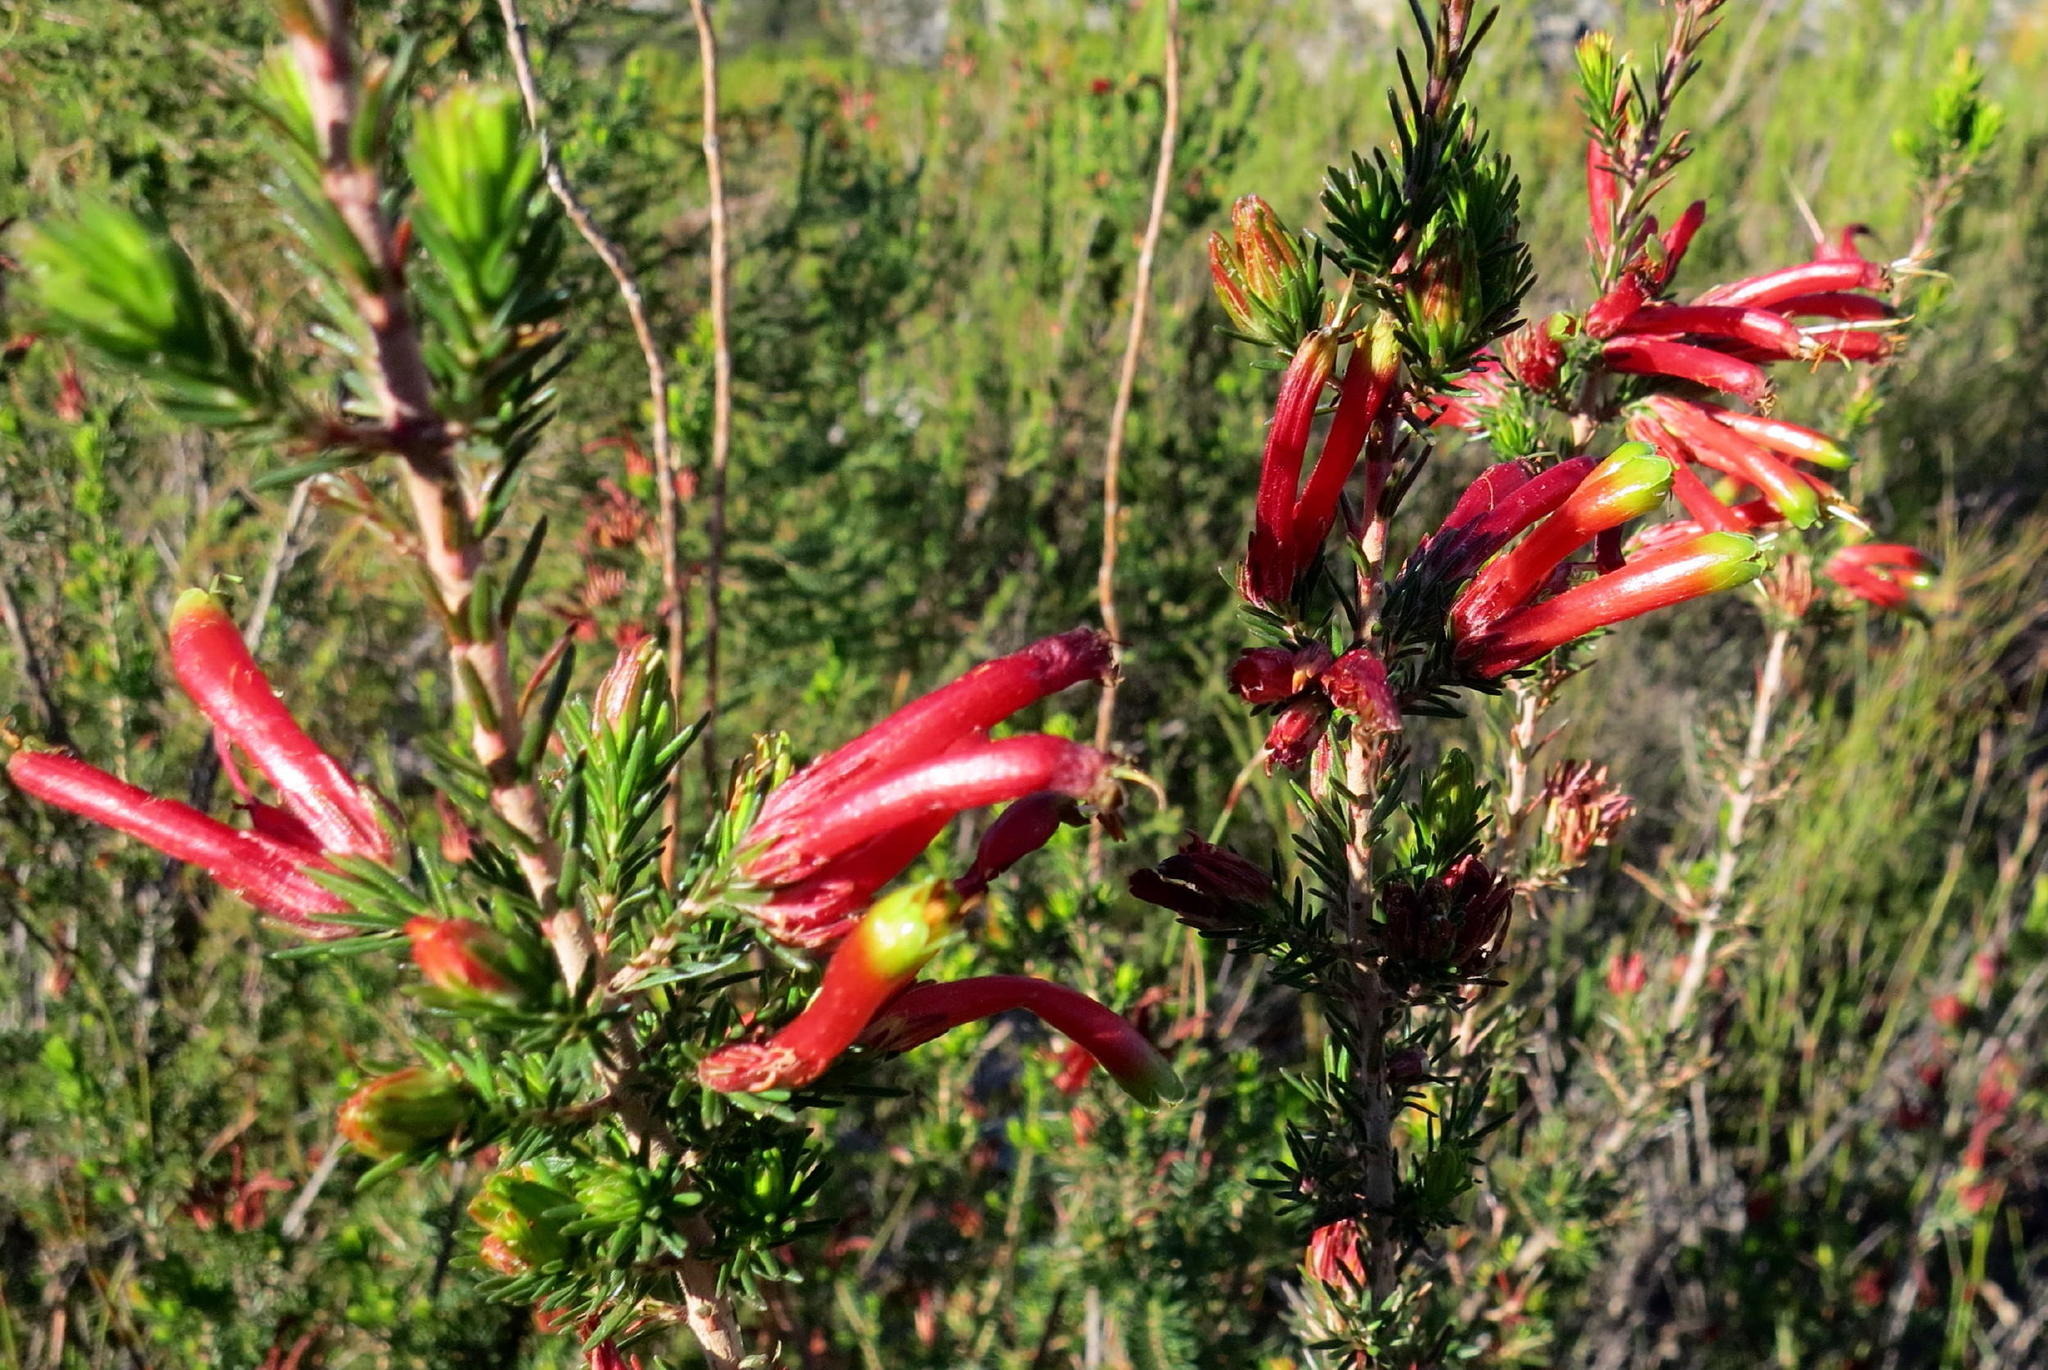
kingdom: Plantae
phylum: Tracheophyta
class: Magnoliopsida
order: Ericales
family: Ericaceae
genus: Erica
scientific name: Erica unicolor
